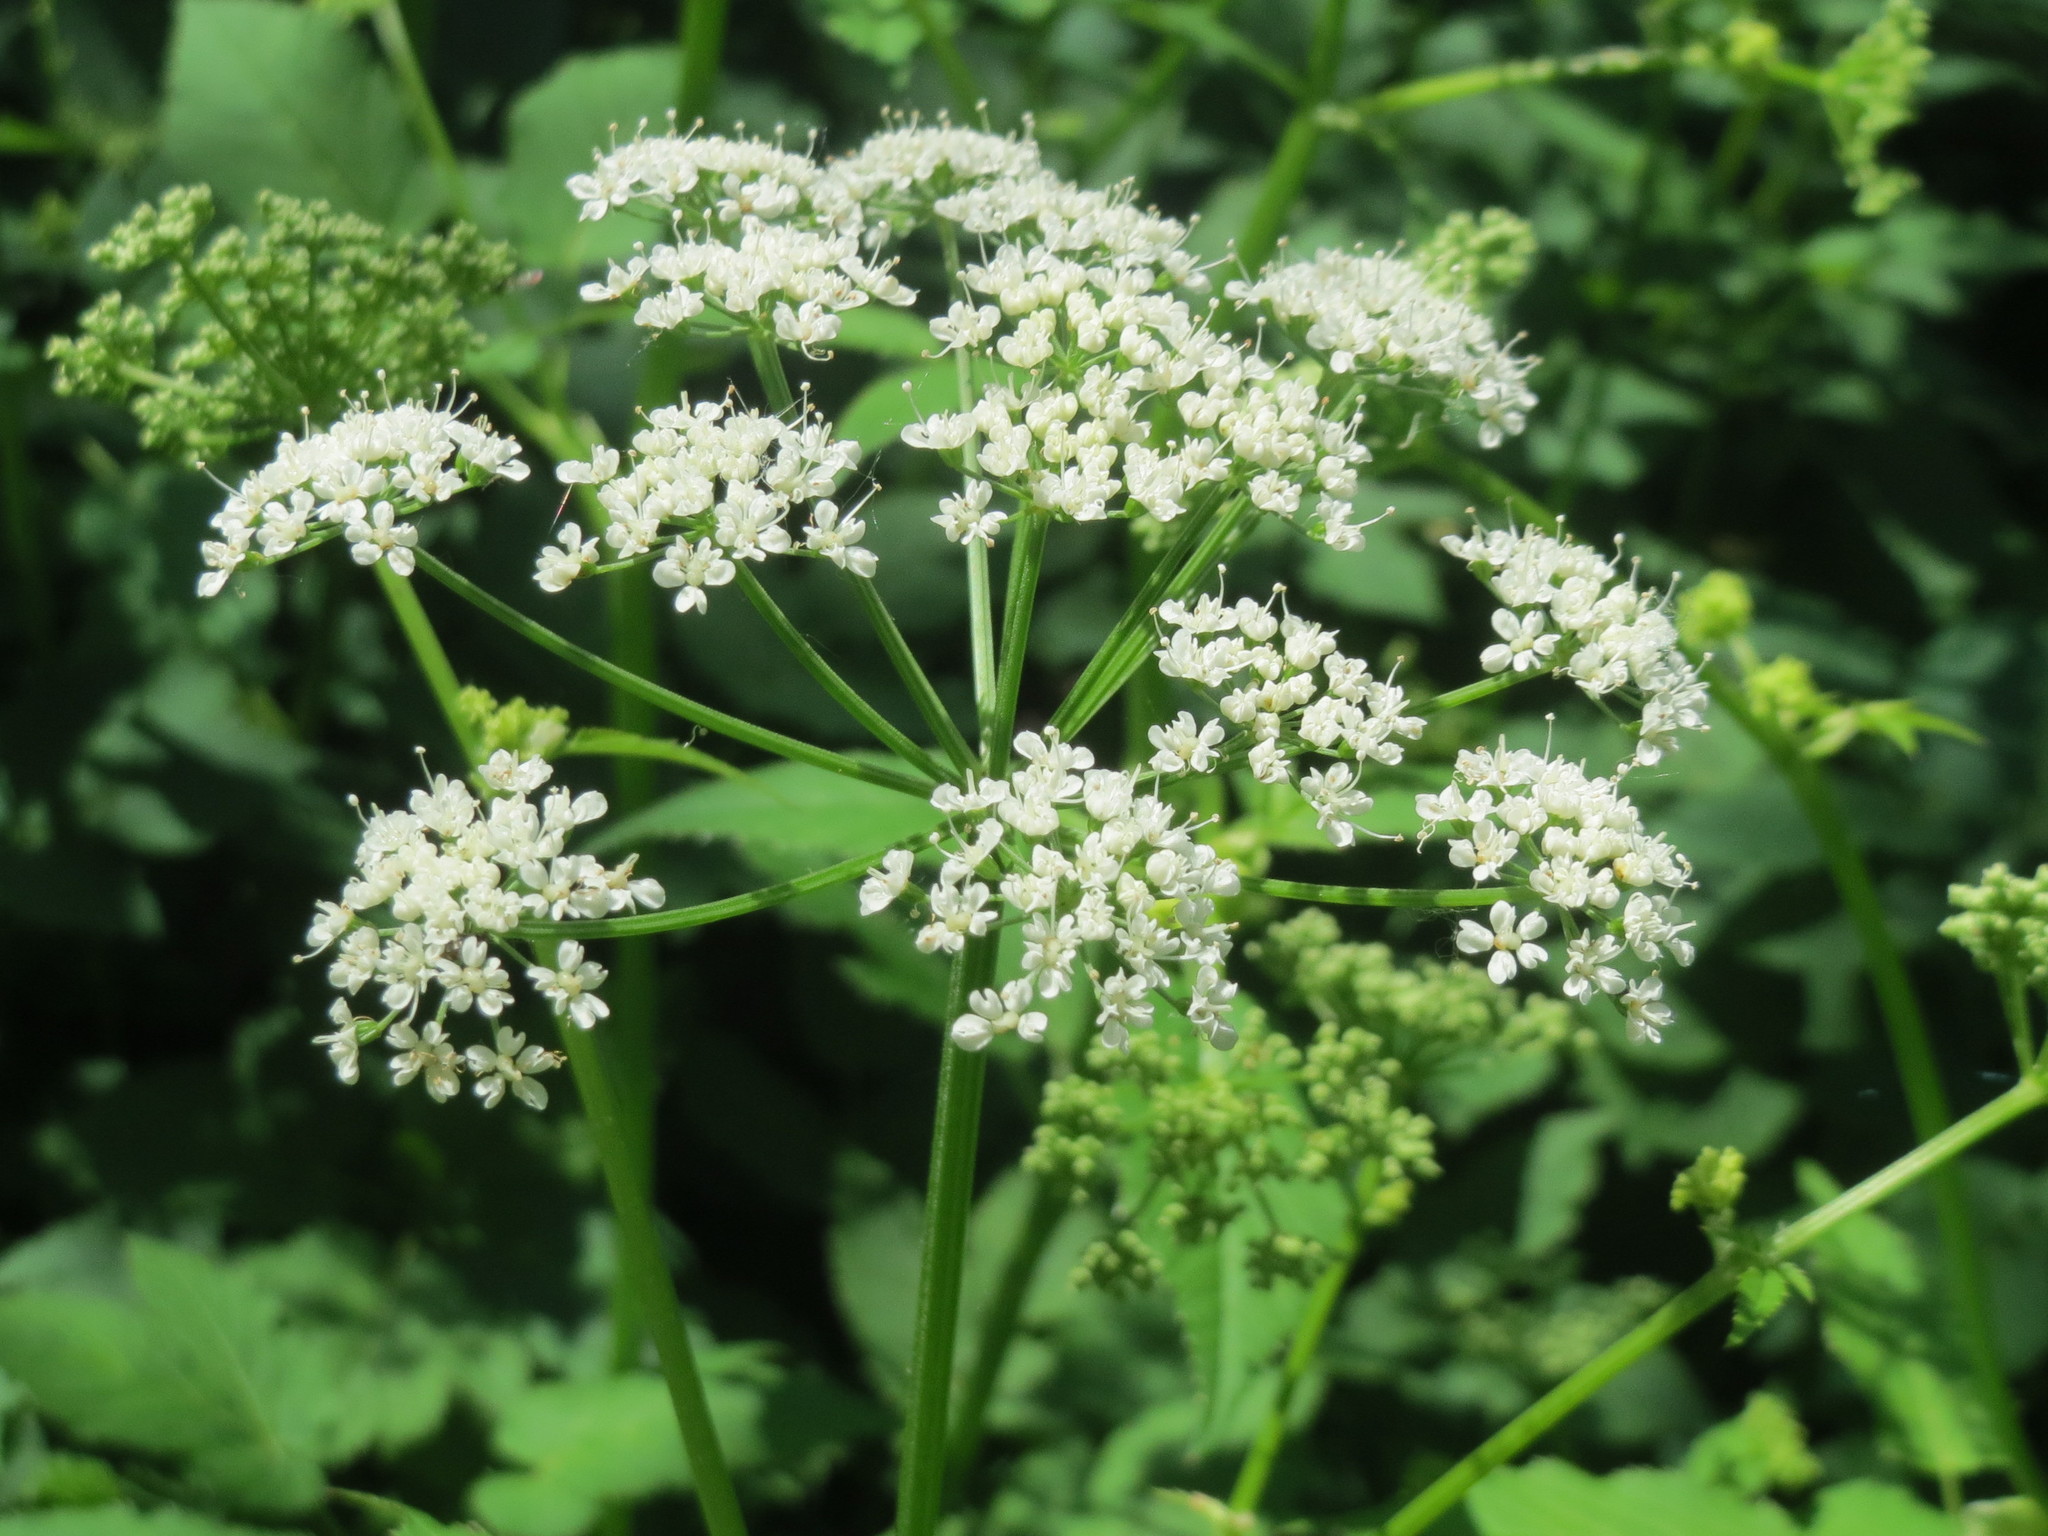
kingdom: Plantae
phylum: Tracheophyta
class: Magnoliopsida
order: Apiales
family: Apiaceae
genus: Aegopodium
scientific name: Aegopodium podagraria
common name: Ground-elder
